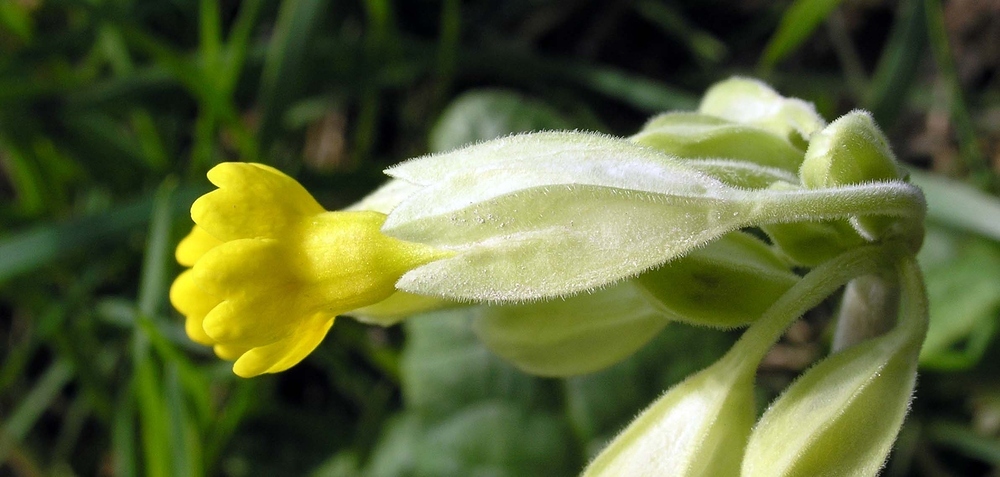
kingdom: Plantae
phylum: Tracheophyta
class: Magnoliopsida
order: Ericales
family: Primulaceae
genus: Primula
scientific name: Primula veris
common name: Cowslip
